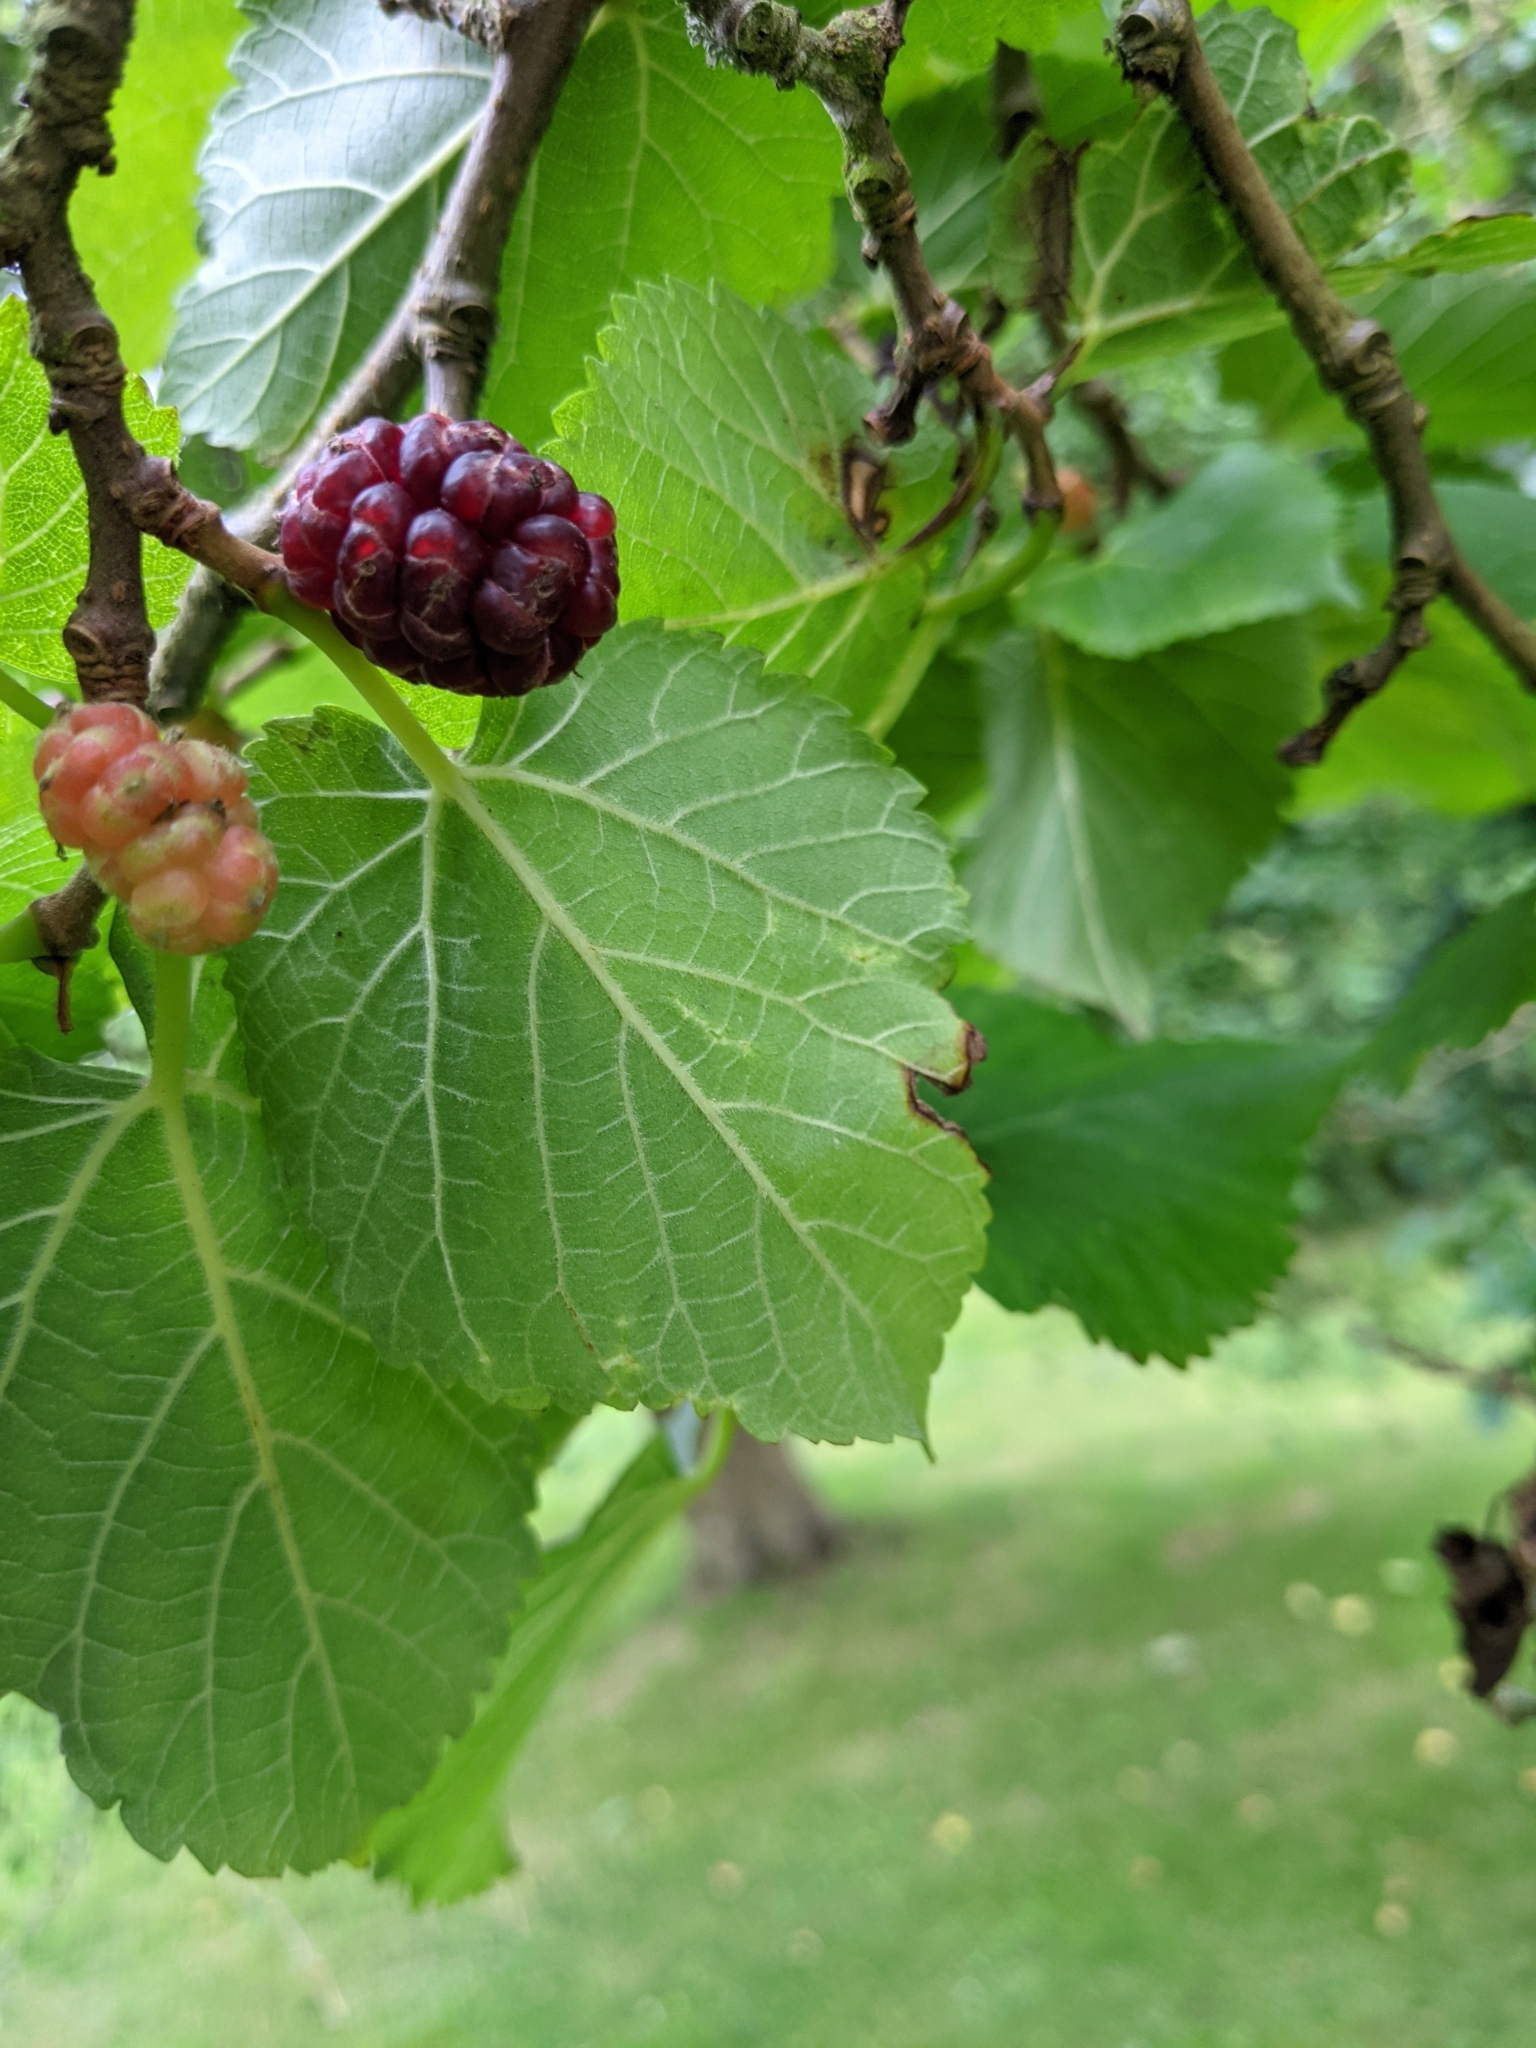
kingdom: Plantae
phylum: Tracheophyta
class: Magnoliopsida
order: Rosales
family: Moraceae
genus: Morus
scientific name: Morus nigra
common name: Black mulberry
